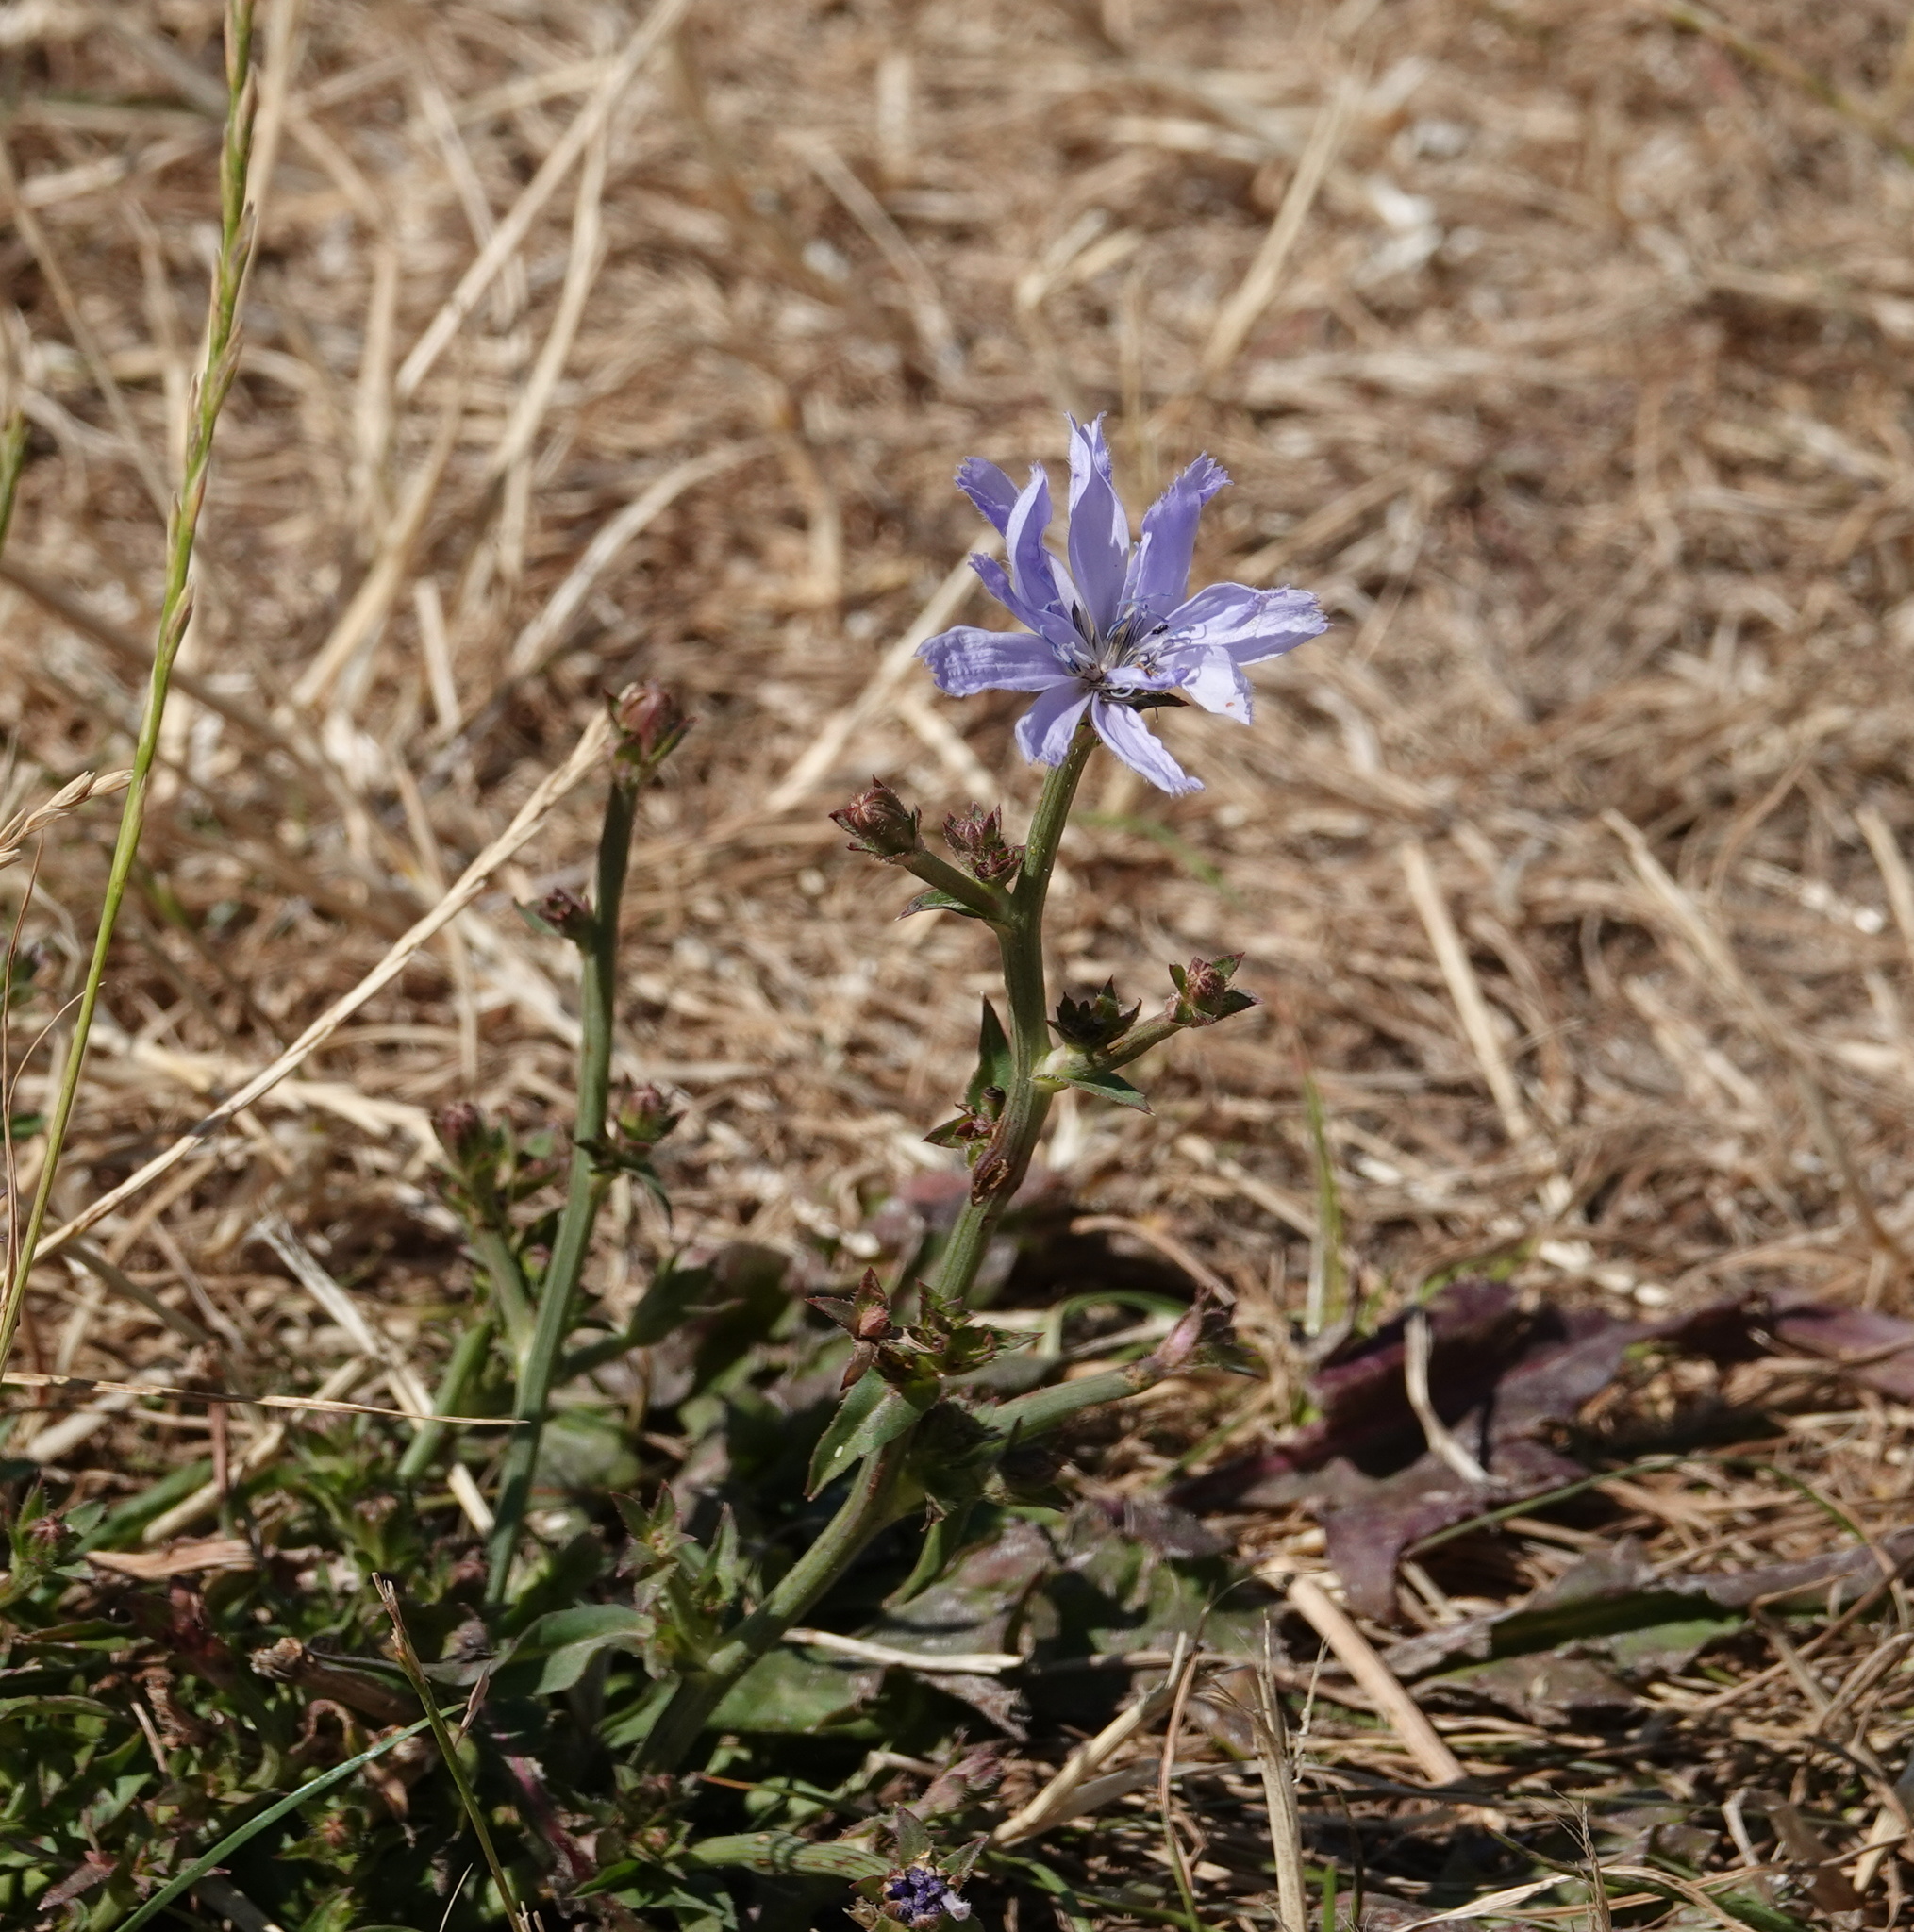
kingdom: Plantae
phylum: Tracheophyta
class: Magnoliopsida
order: Asterales
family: Asteraceae
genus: Cichorium
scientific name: Cichorium intybus
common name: Chicory
